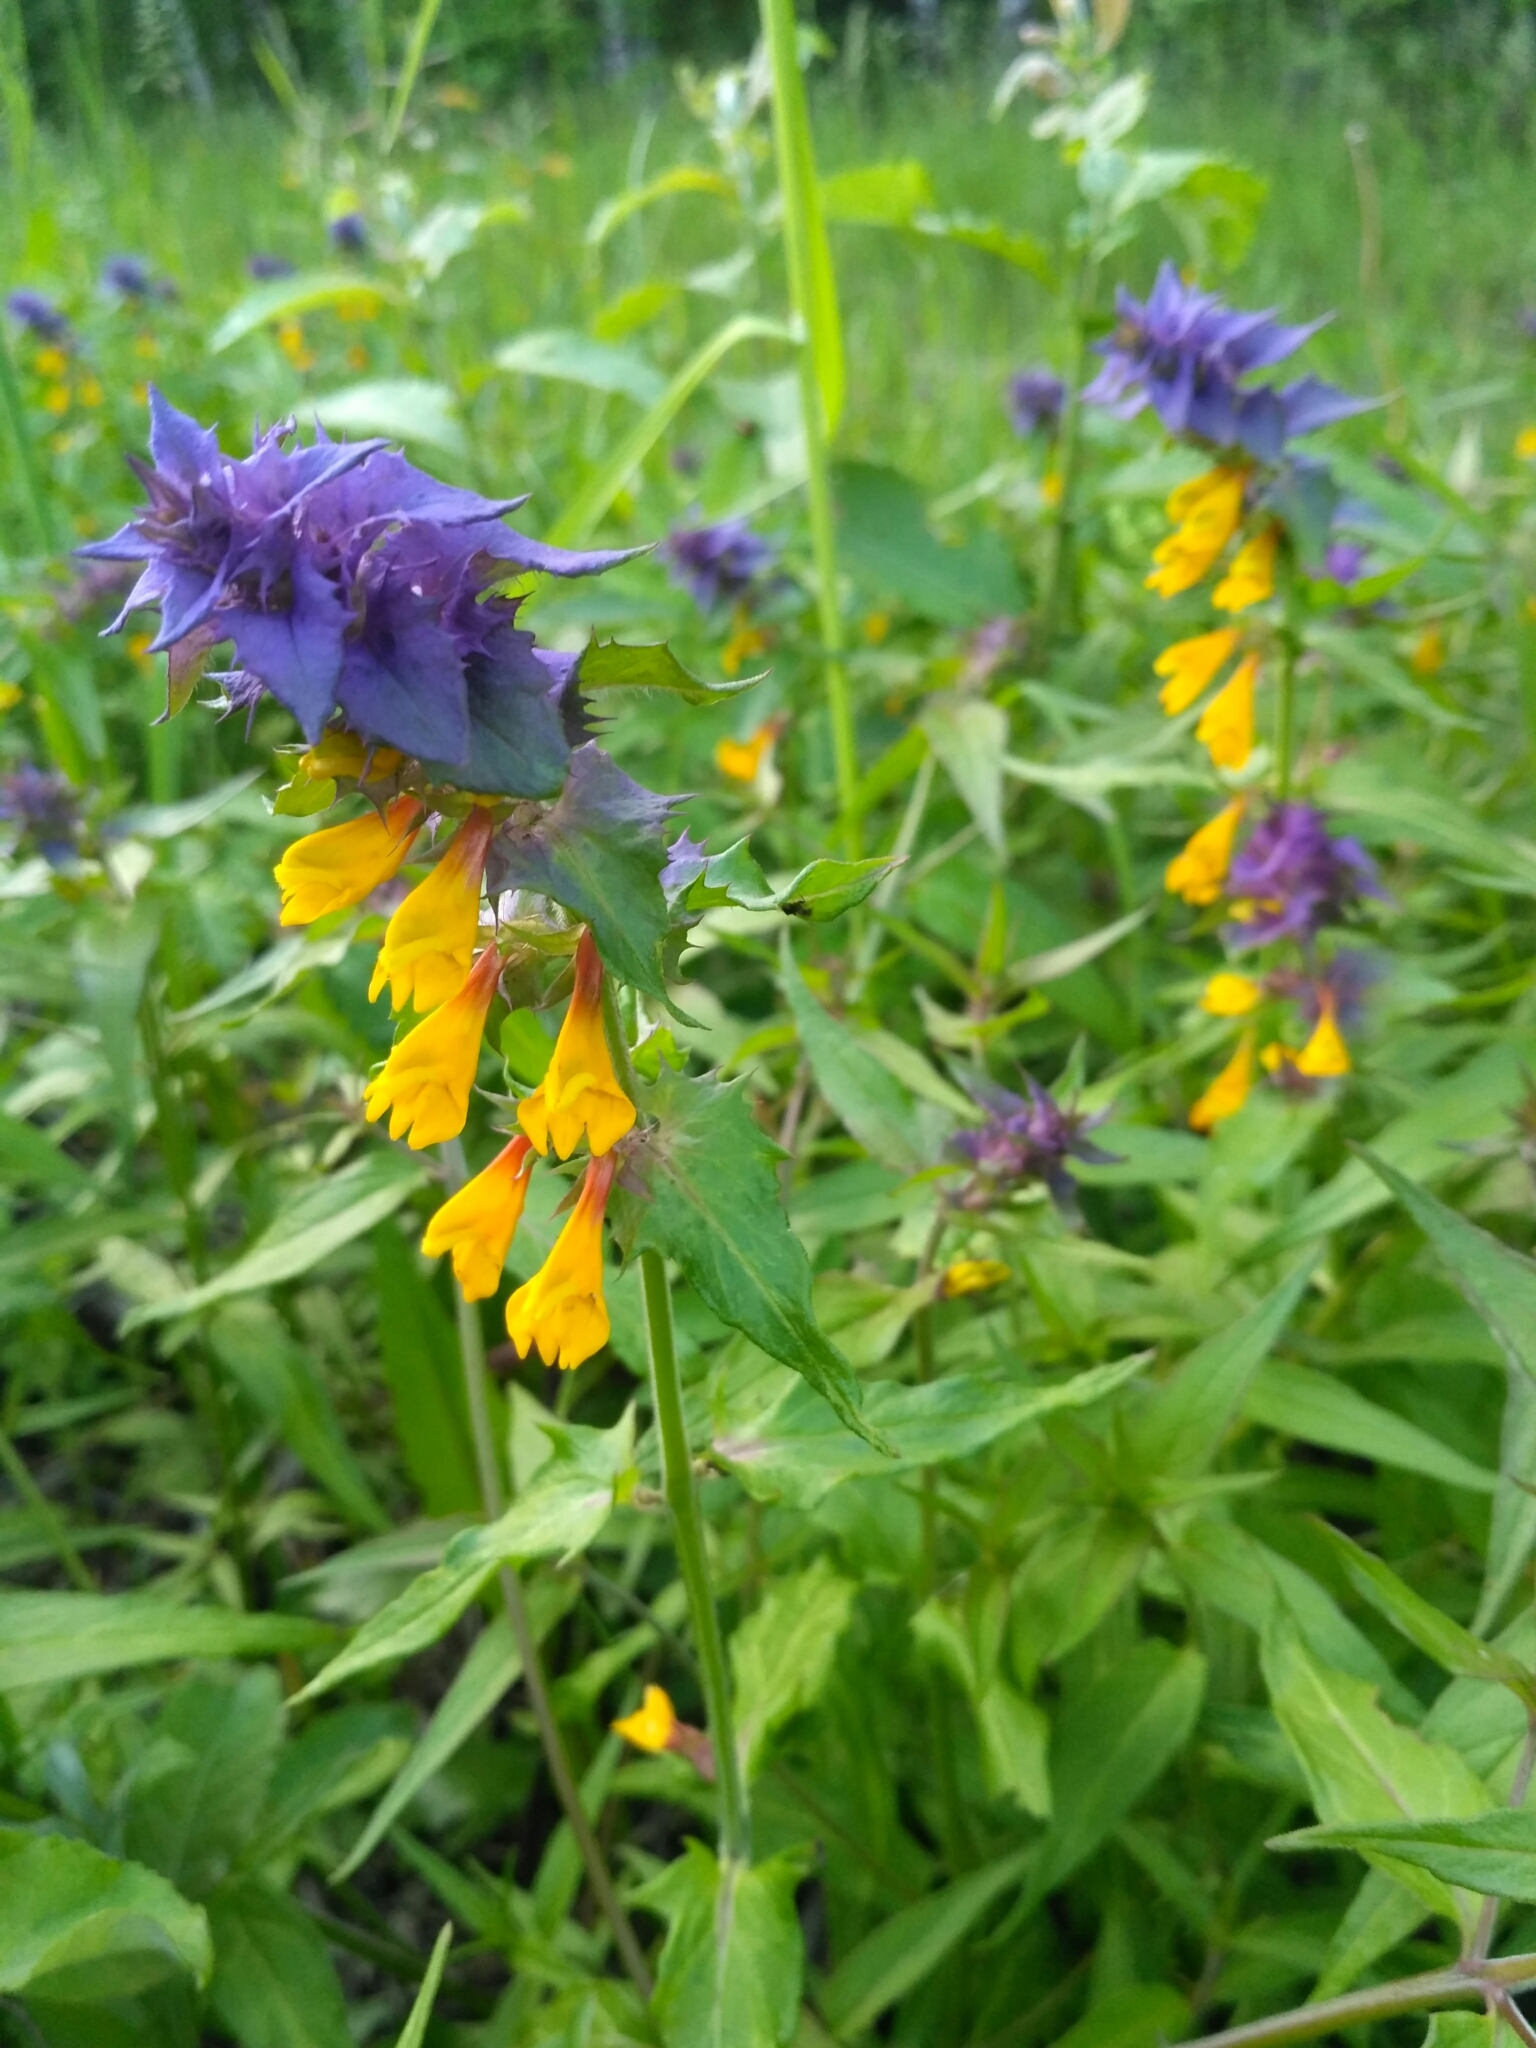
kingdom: Plantae
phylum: Tracheophyta
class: Magnoliopsida
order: Lamiales
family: Orobanchaceae
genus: Melampyrum
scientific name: Melampyrum nemorosum
